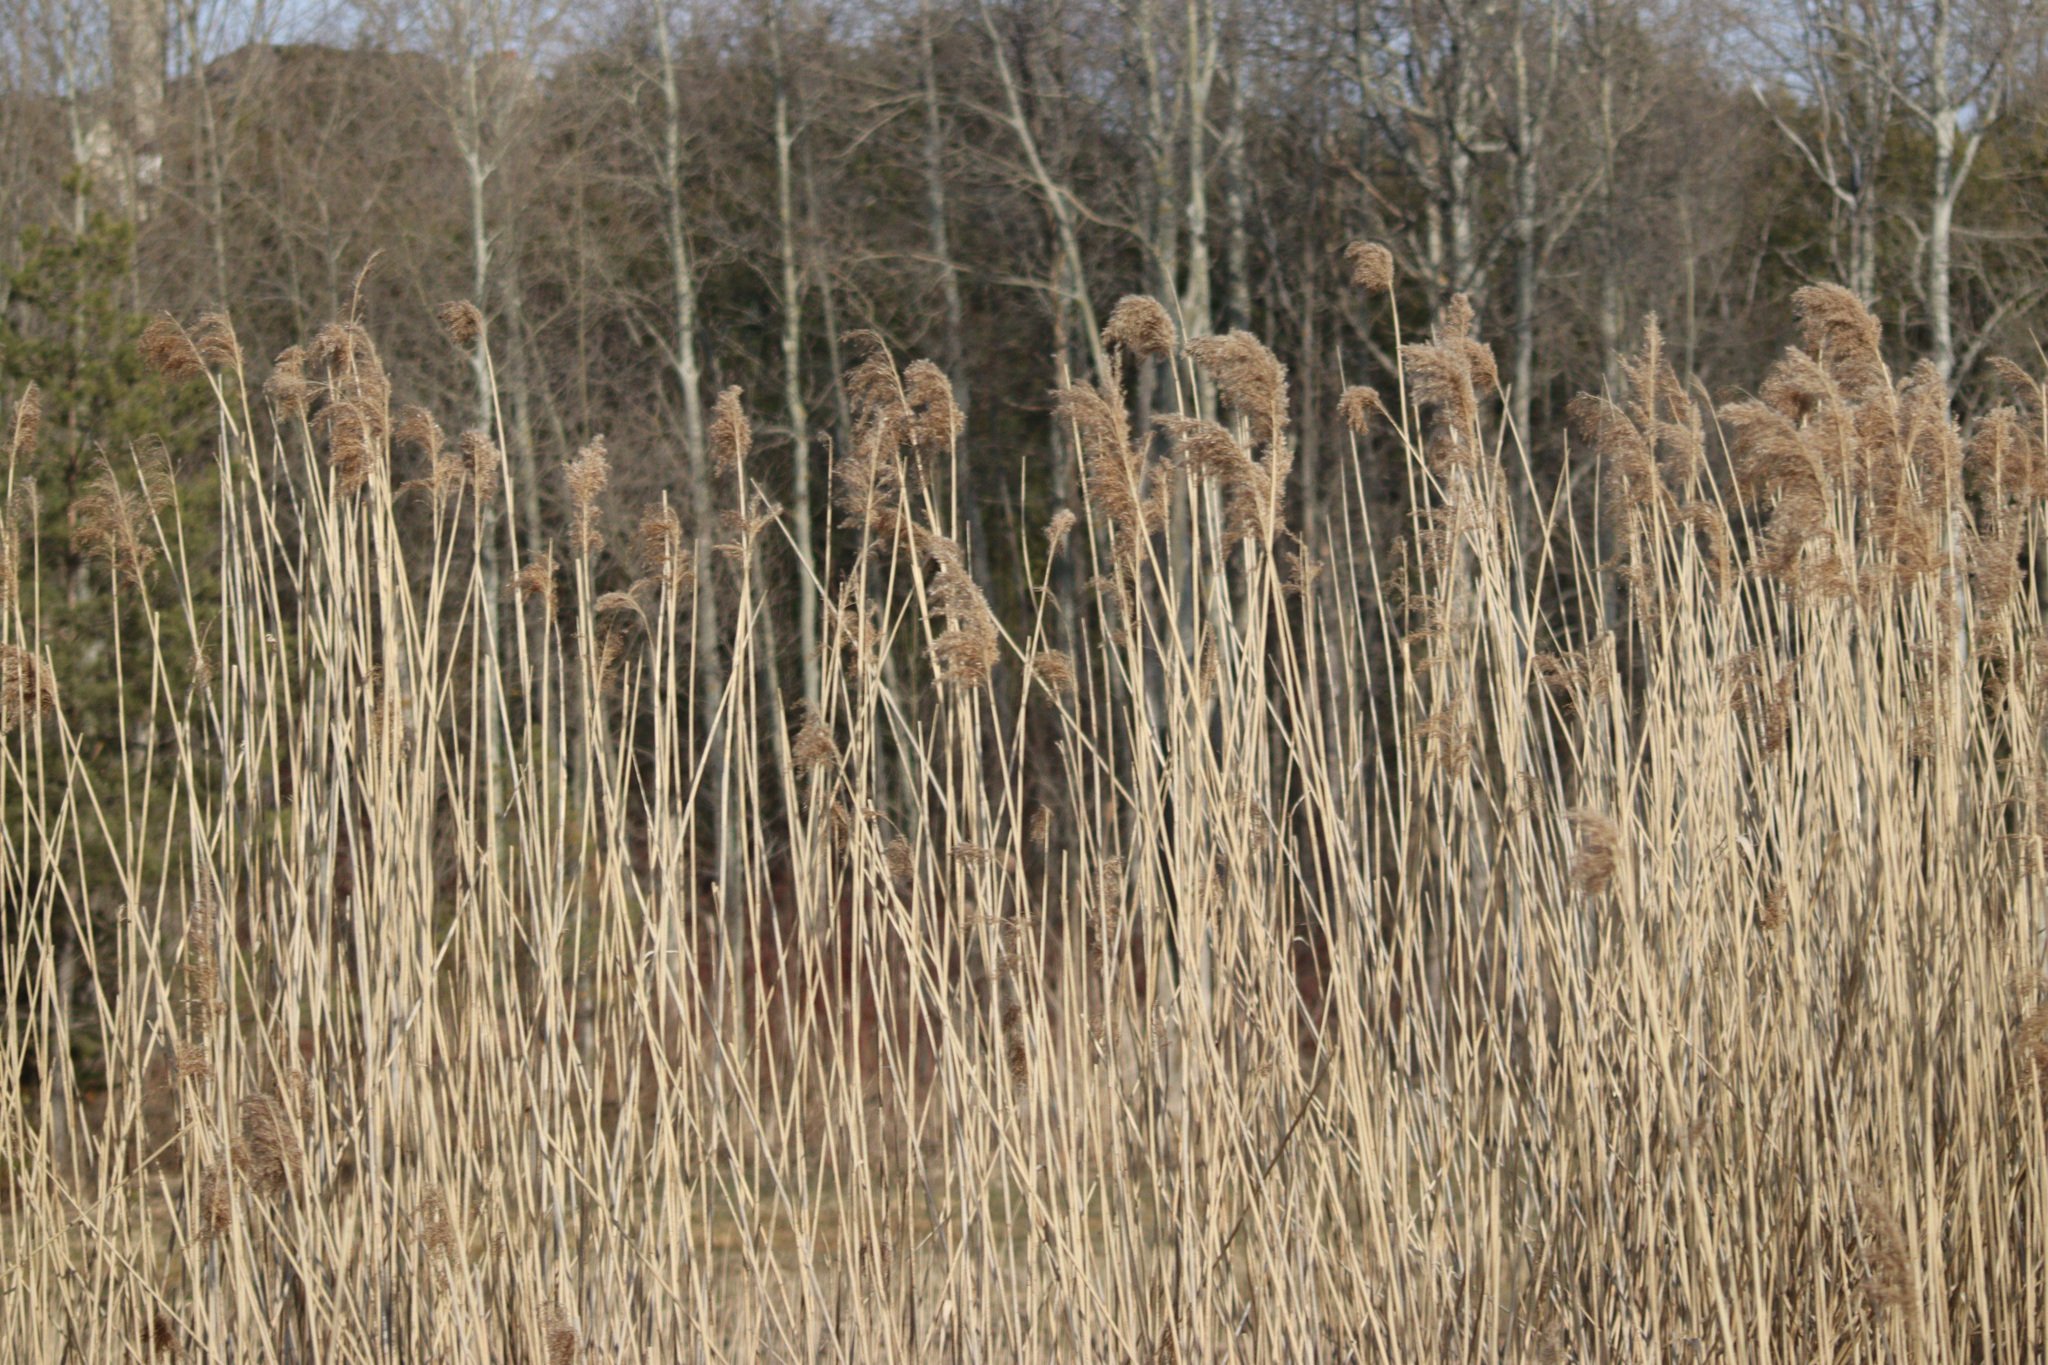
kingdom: Plantae
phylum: Tracheophyta
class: Liliopsida
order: Poales
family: Poaceae
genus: Phragmites
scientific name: Phragmites australis
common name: Common reed
